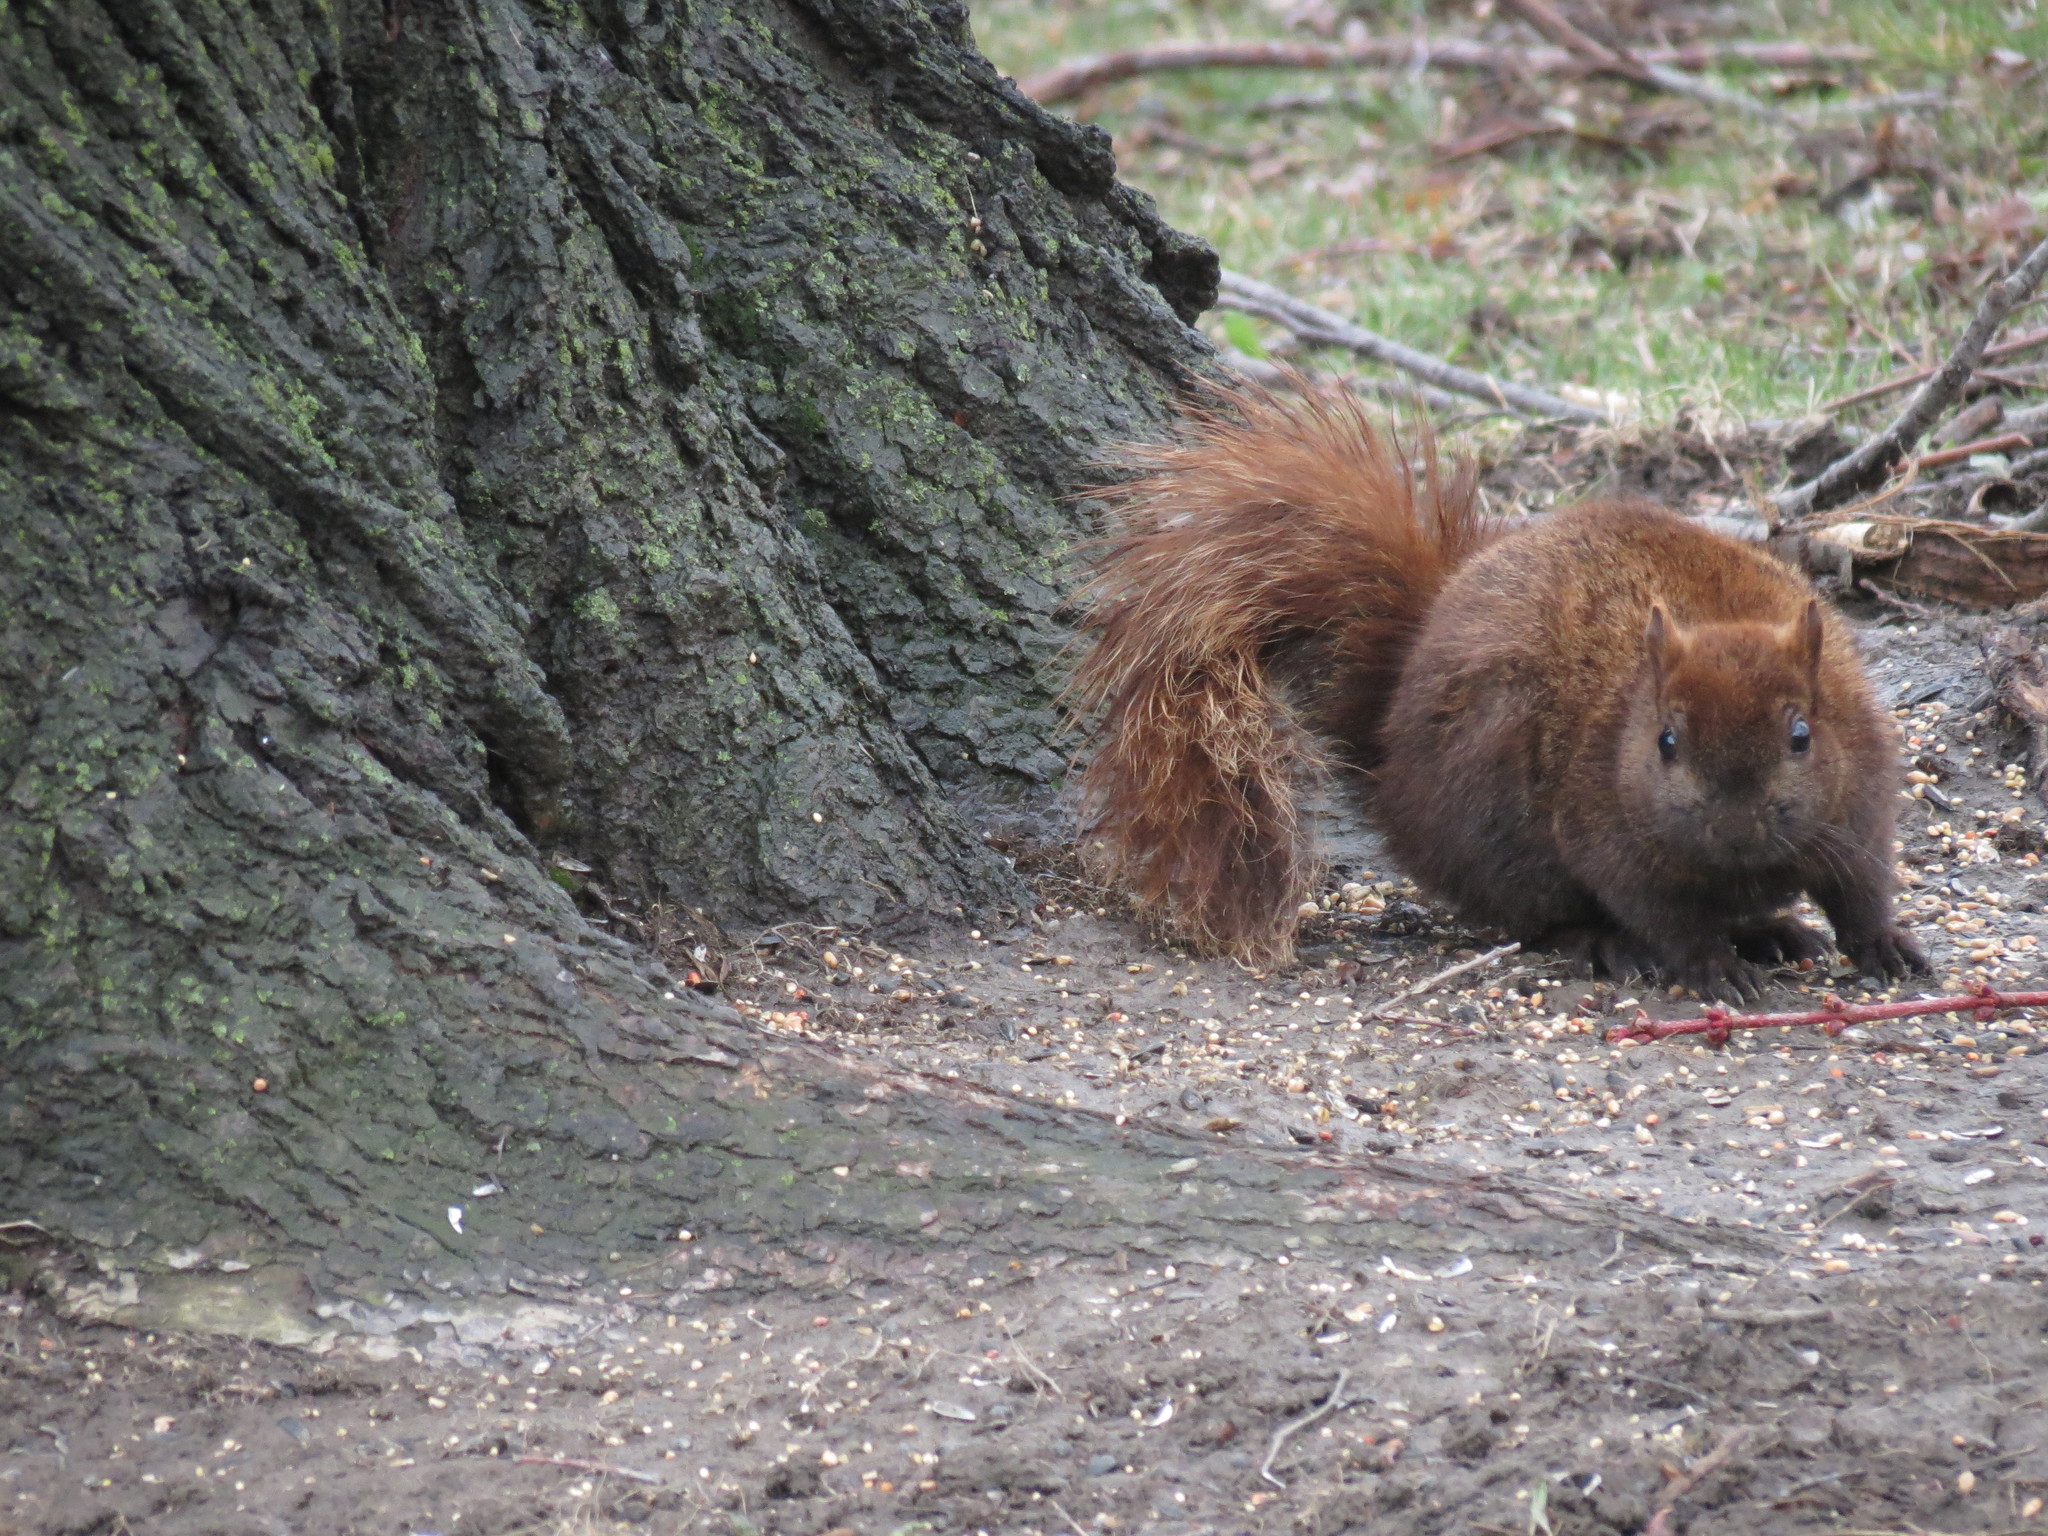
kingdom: Animalia
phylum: Chordata
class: Mammalia
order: Rodentia
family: Sciuridae
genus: Sciurus
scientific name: Sciurus carolinensis
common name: Eastern gray squirrel
